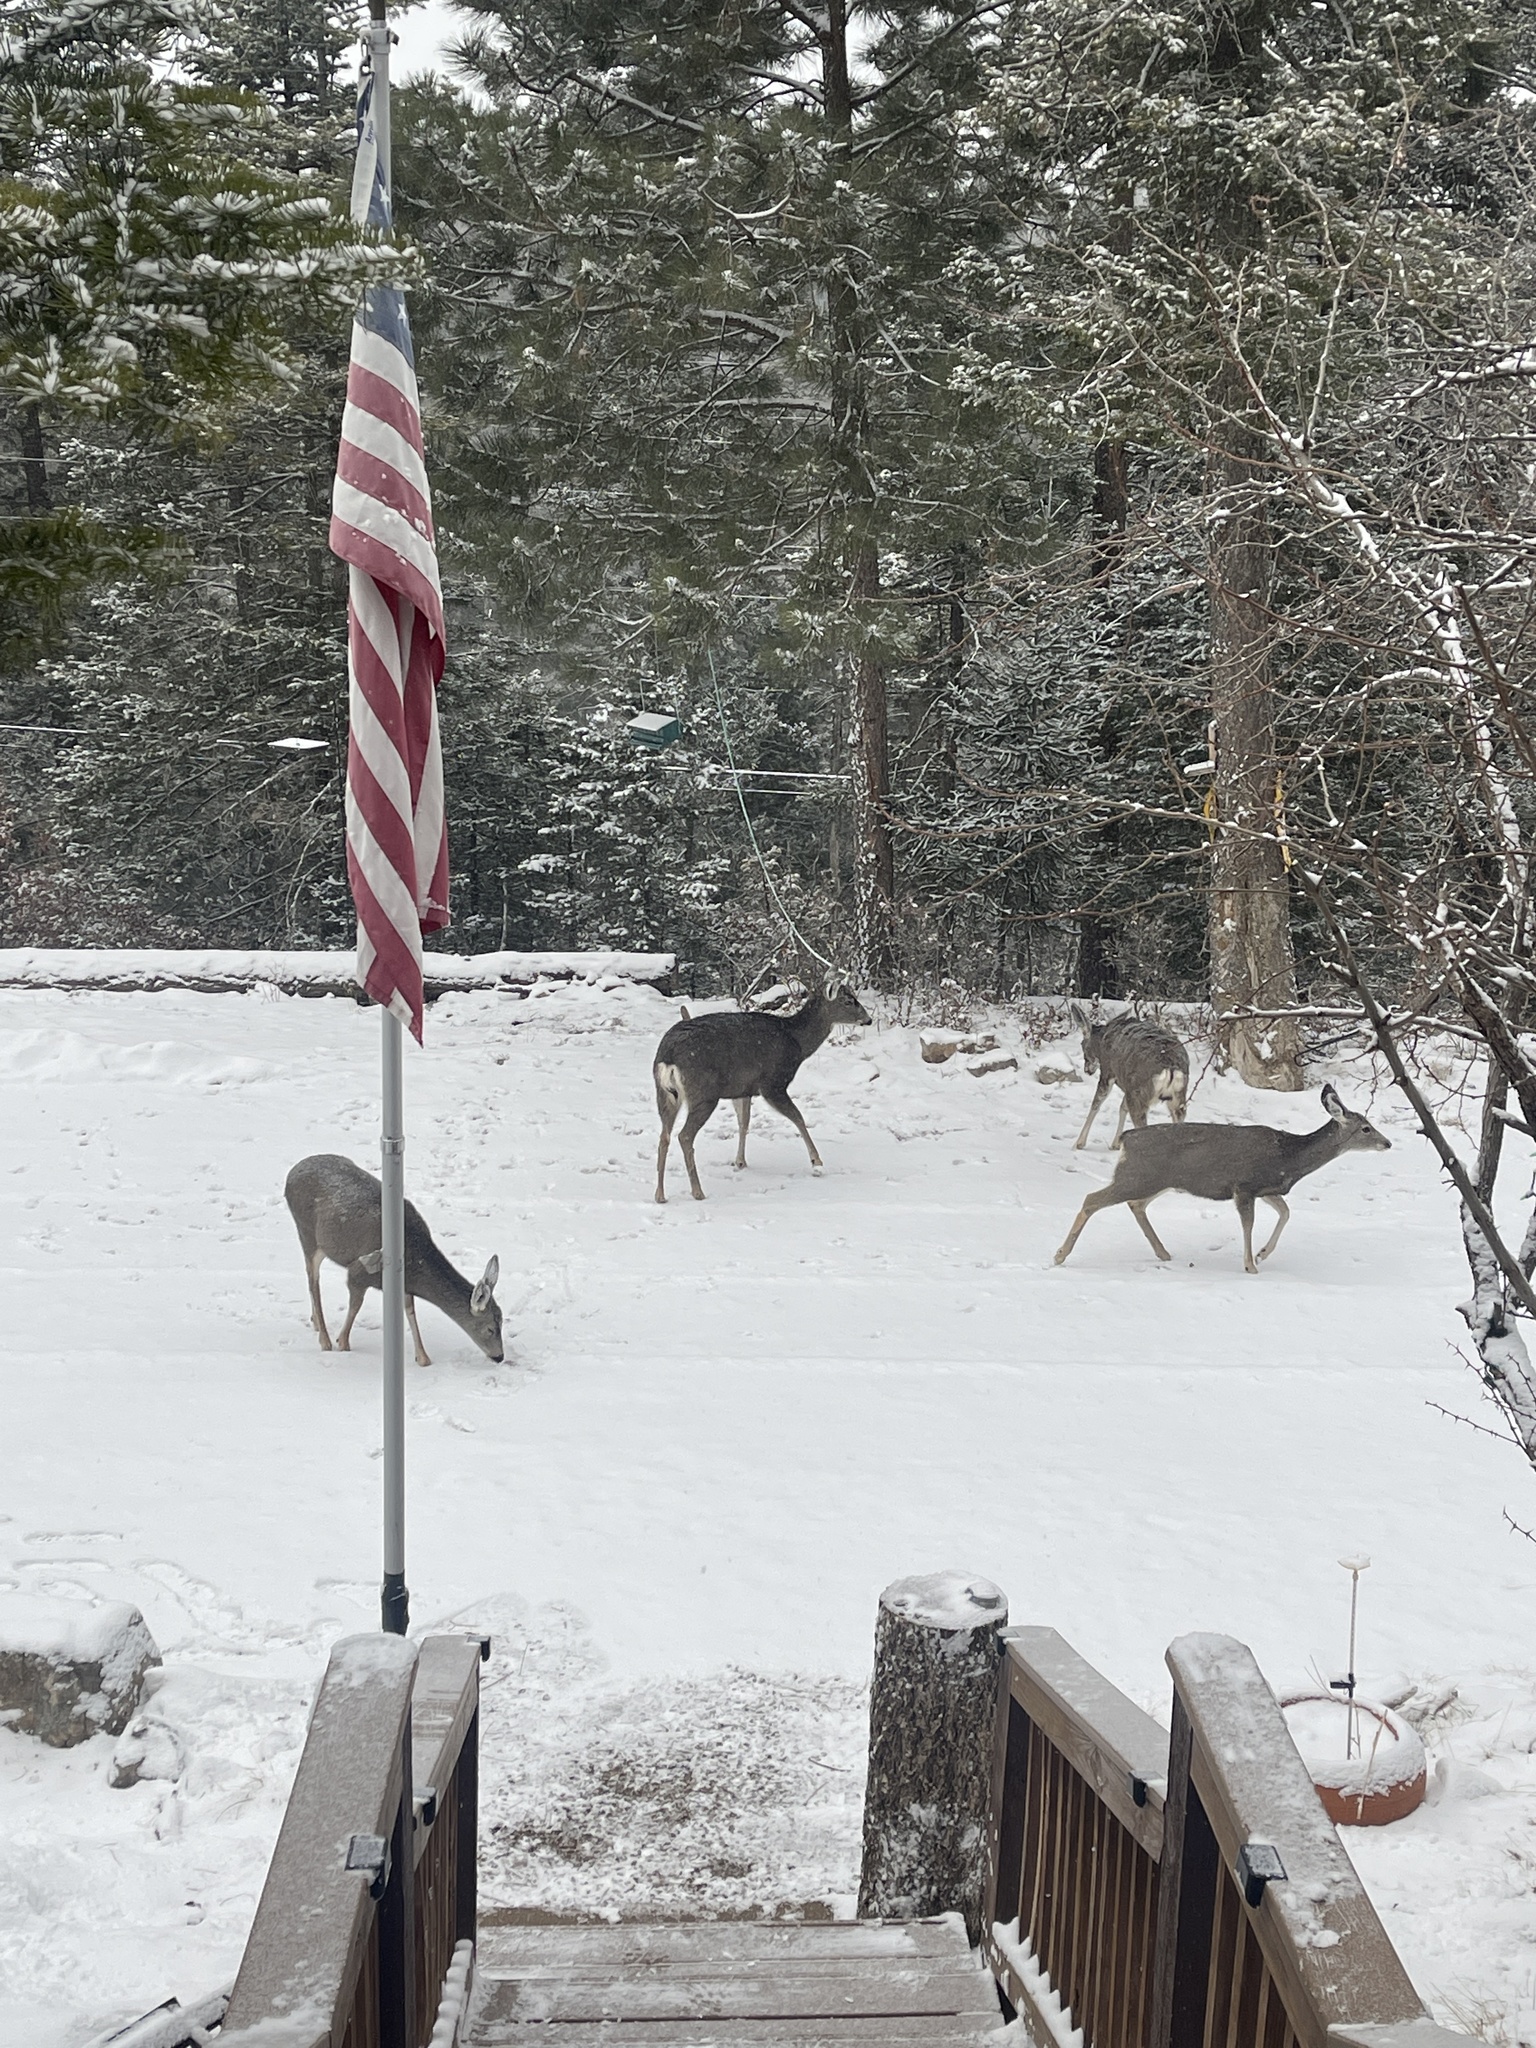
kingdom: Animalia
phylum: Chordata
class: Mammalia
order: Artiodactyla
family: Cervidae
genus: Odocoileus
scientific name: Odocoileus hemionus
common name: Mule deer
